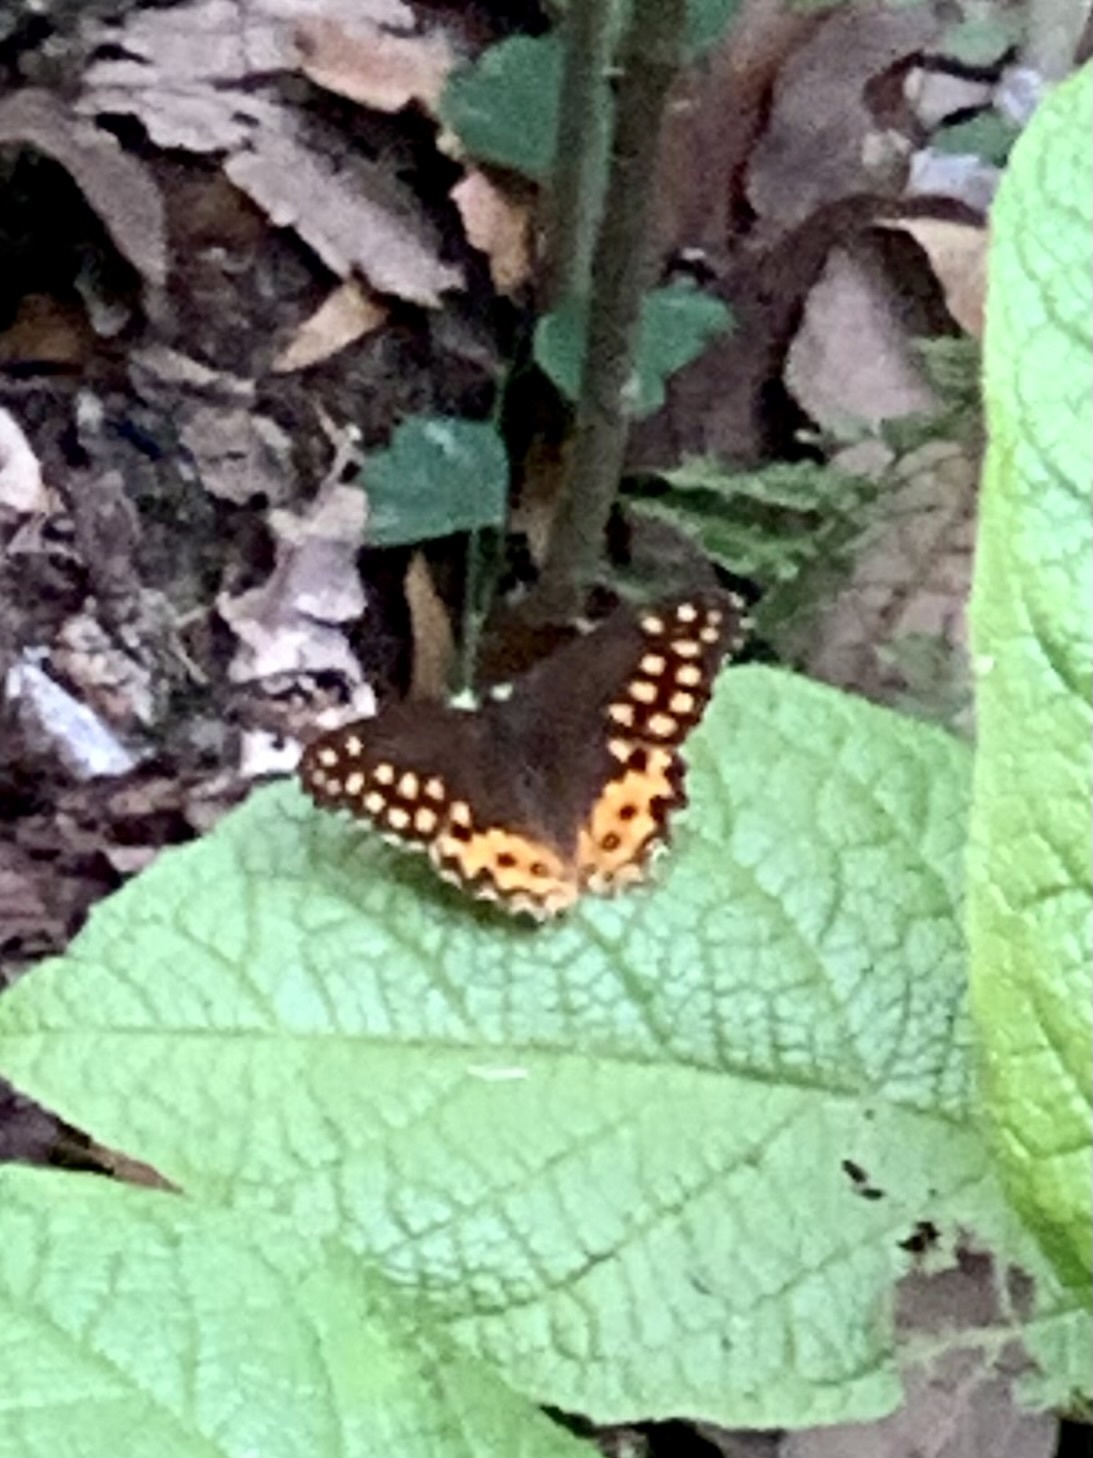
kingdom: Animalia
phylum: Arthropoda
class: Insecta
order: Lepidoptera
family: Nymphalidae
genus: Oxeoschistus
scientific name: Oxeoschistus hilara
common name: Dot-banded satyr
